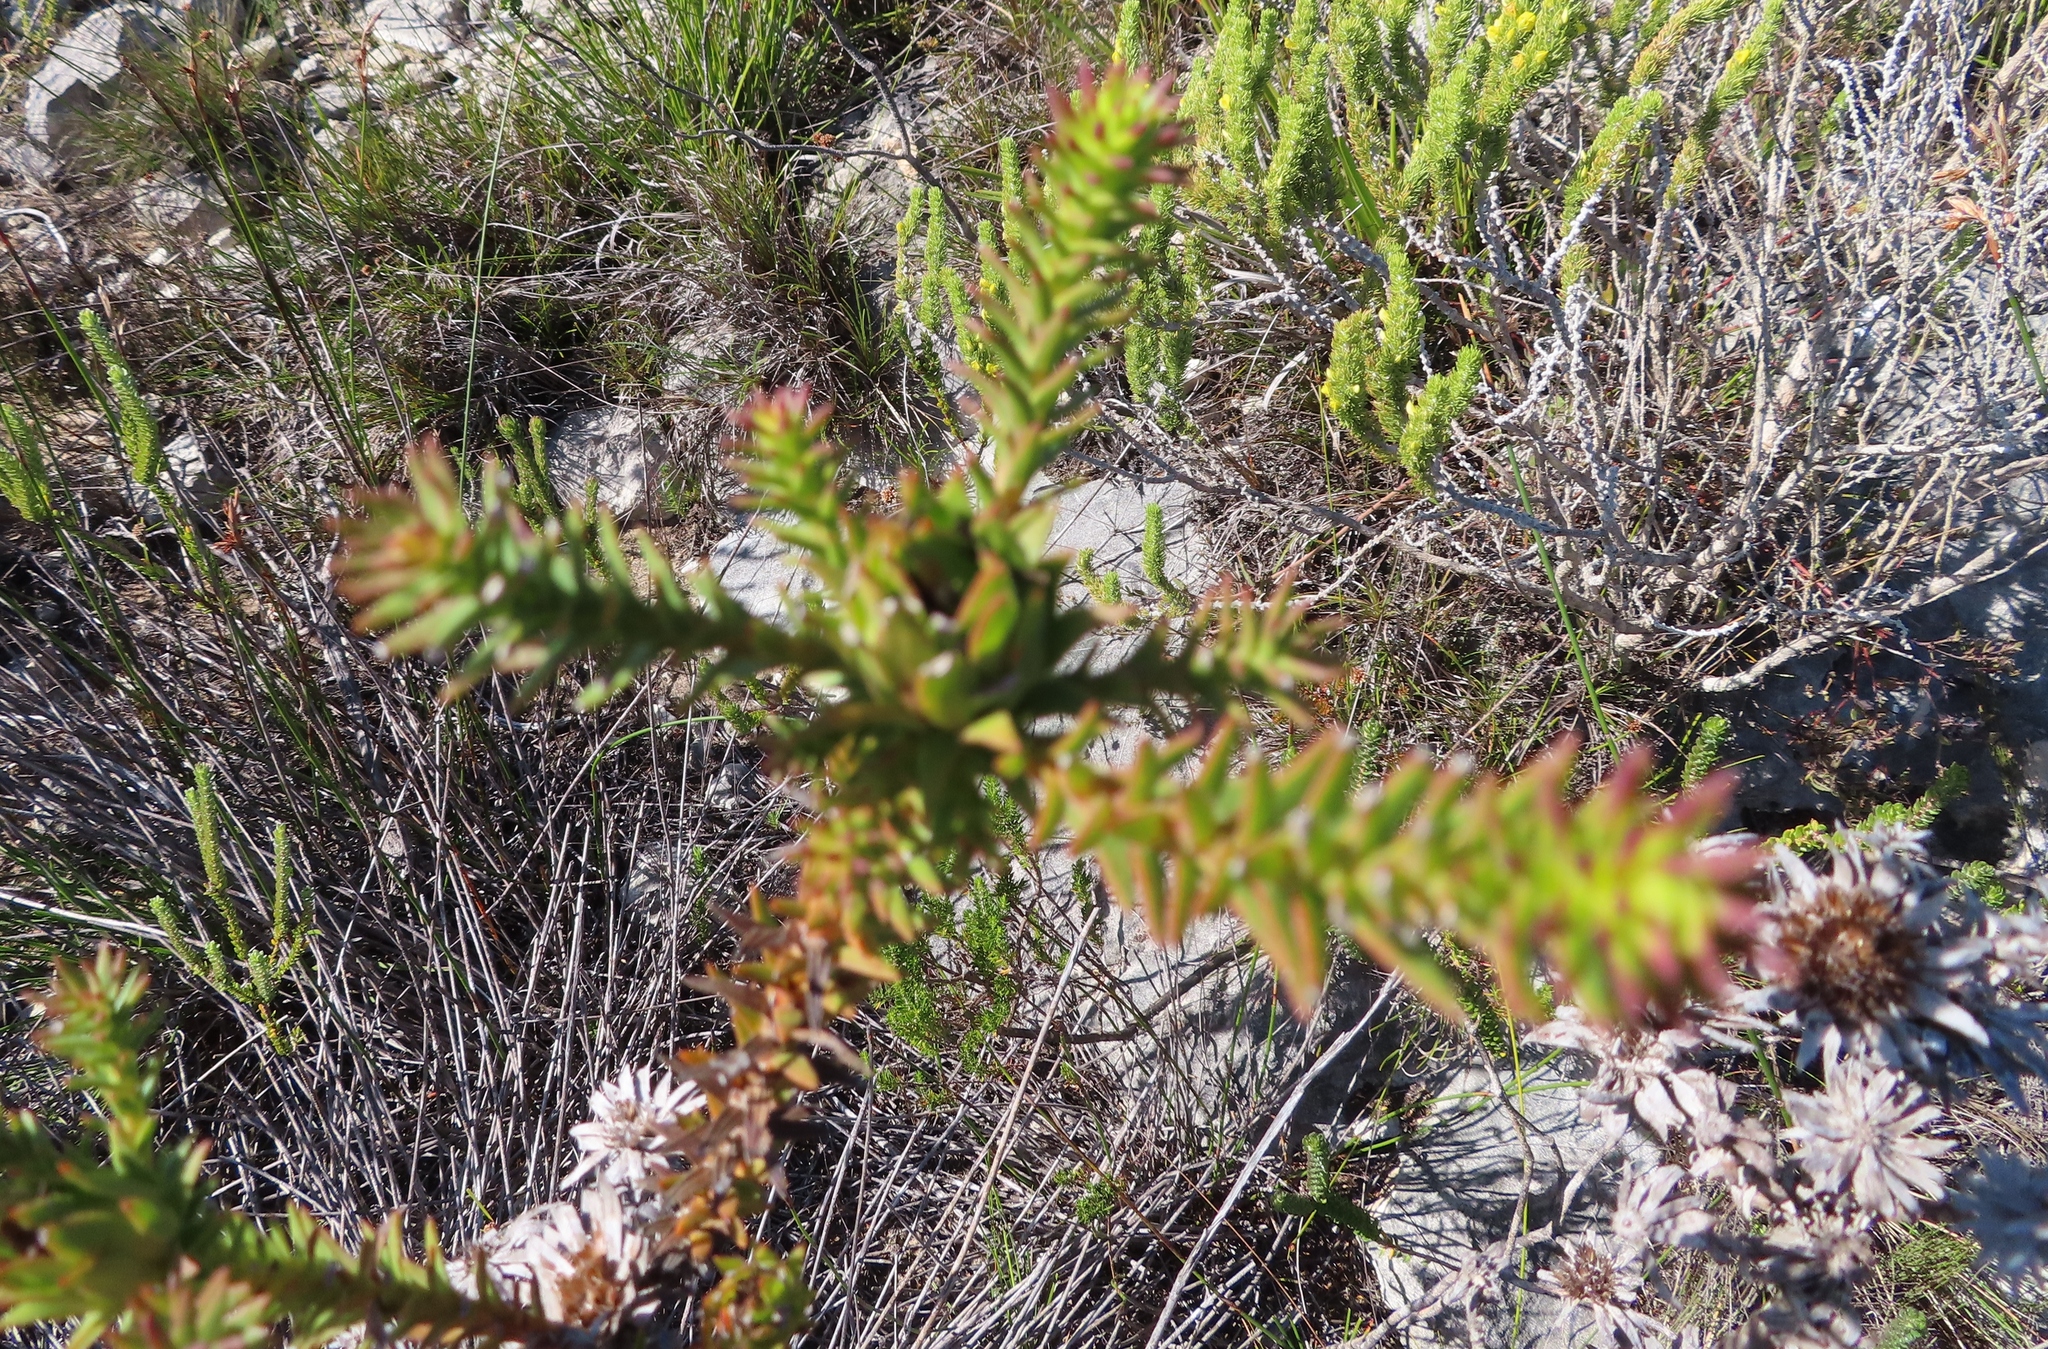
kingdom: Plantae
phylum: Tracheophyta
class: Magnoliopsida
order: Asterales
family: Asteraceae
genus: Oedera
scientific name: Oedera capensis
